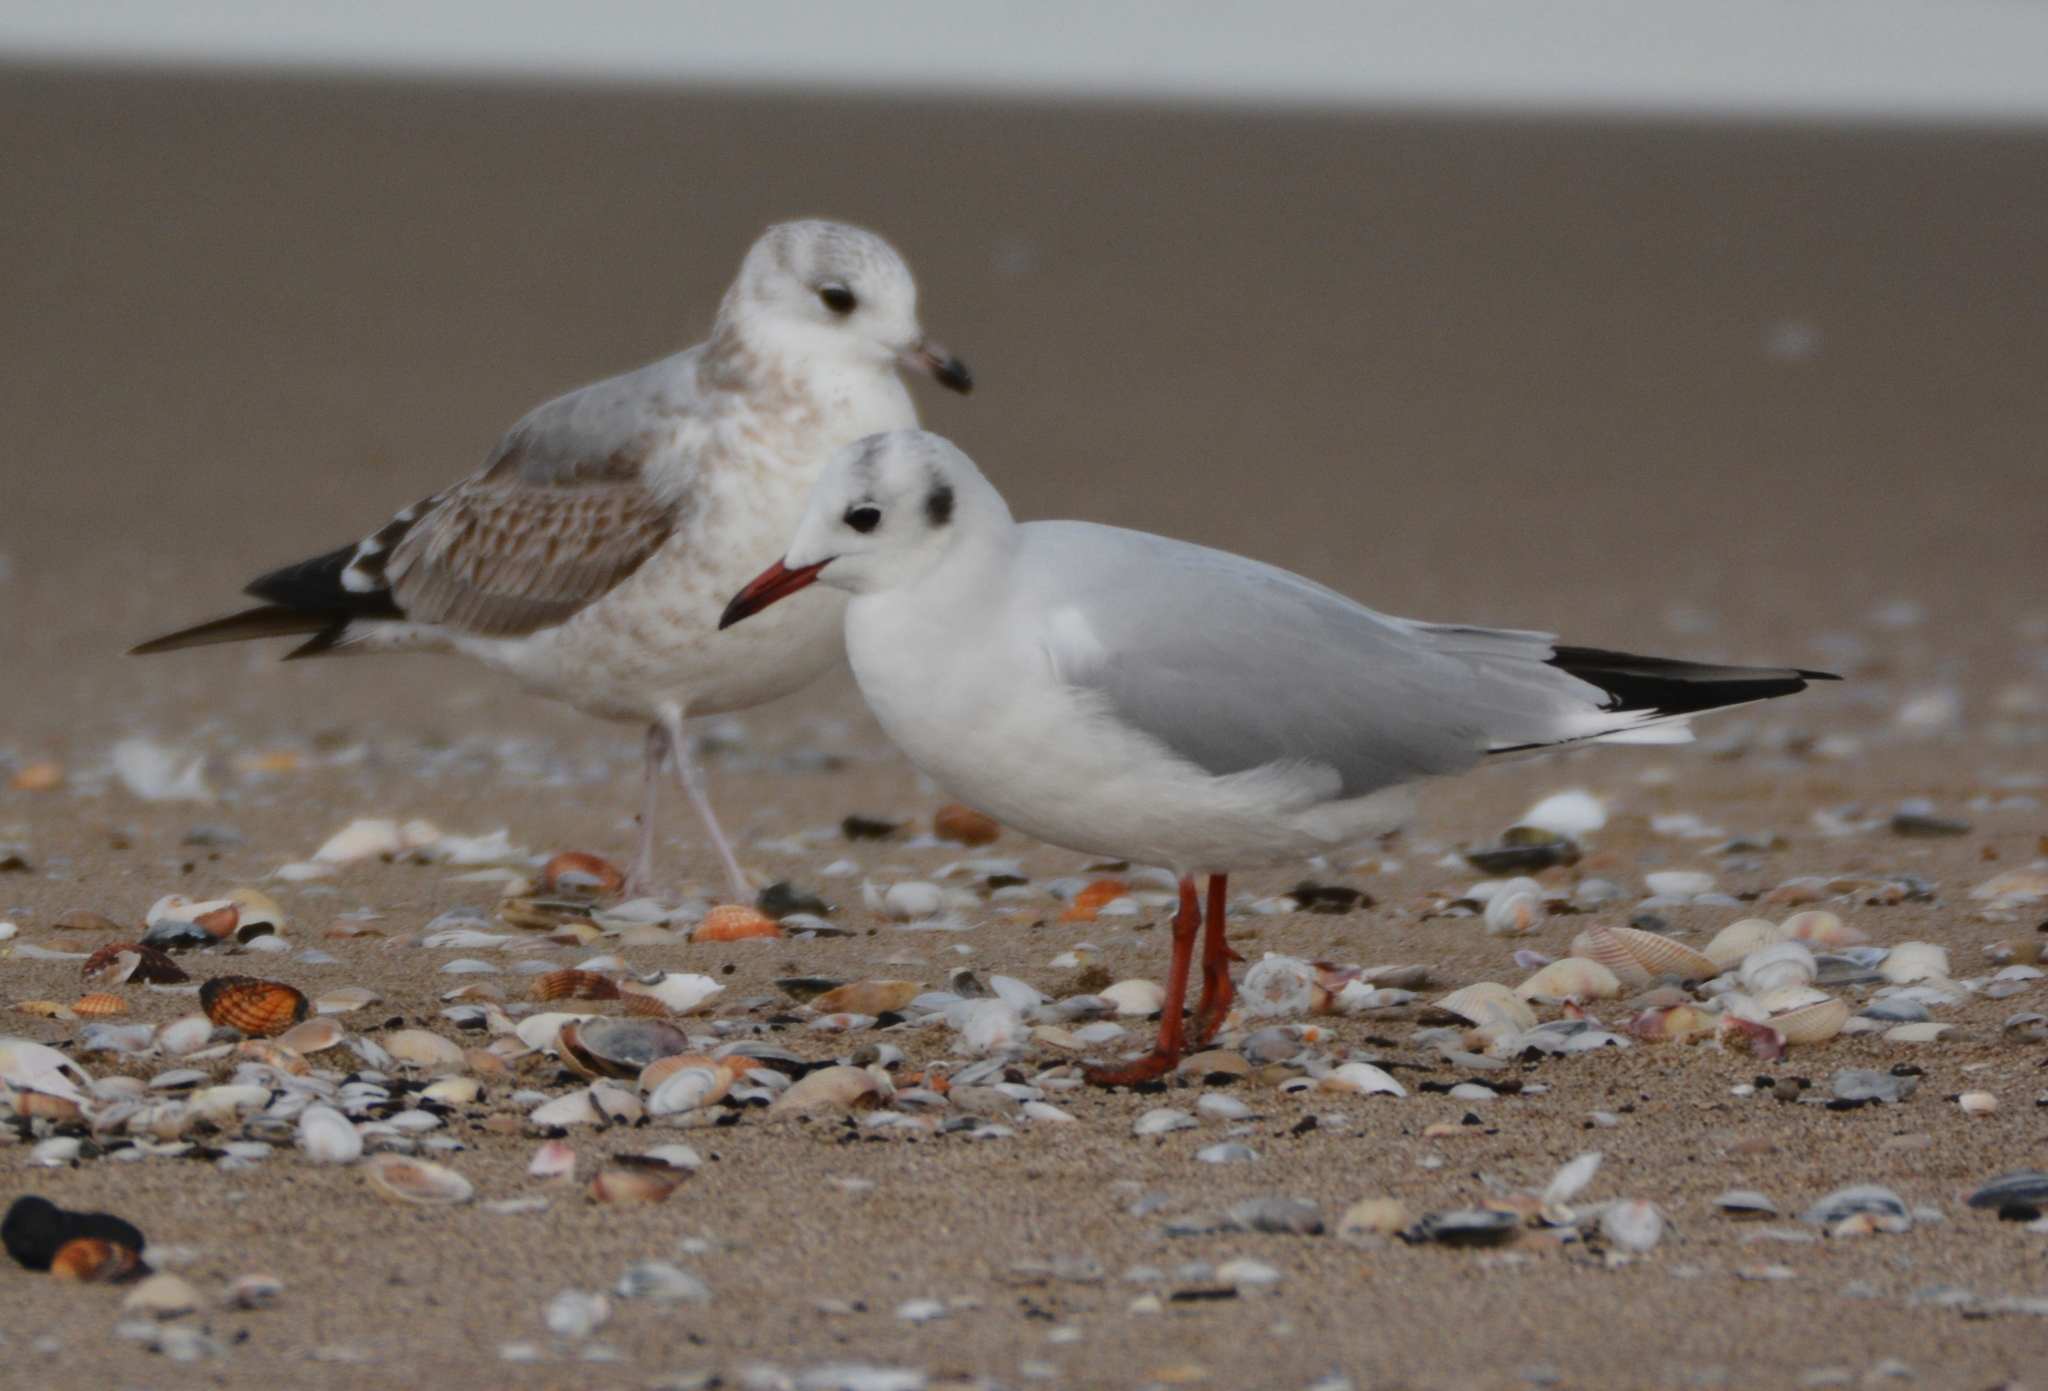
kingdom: Animalia
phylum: Chordata
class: Aves
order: Charadriiformes
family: Laridae
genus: Chroicocephalus
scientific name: Chroicocephalus ridibundus
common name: Black-headed gull
